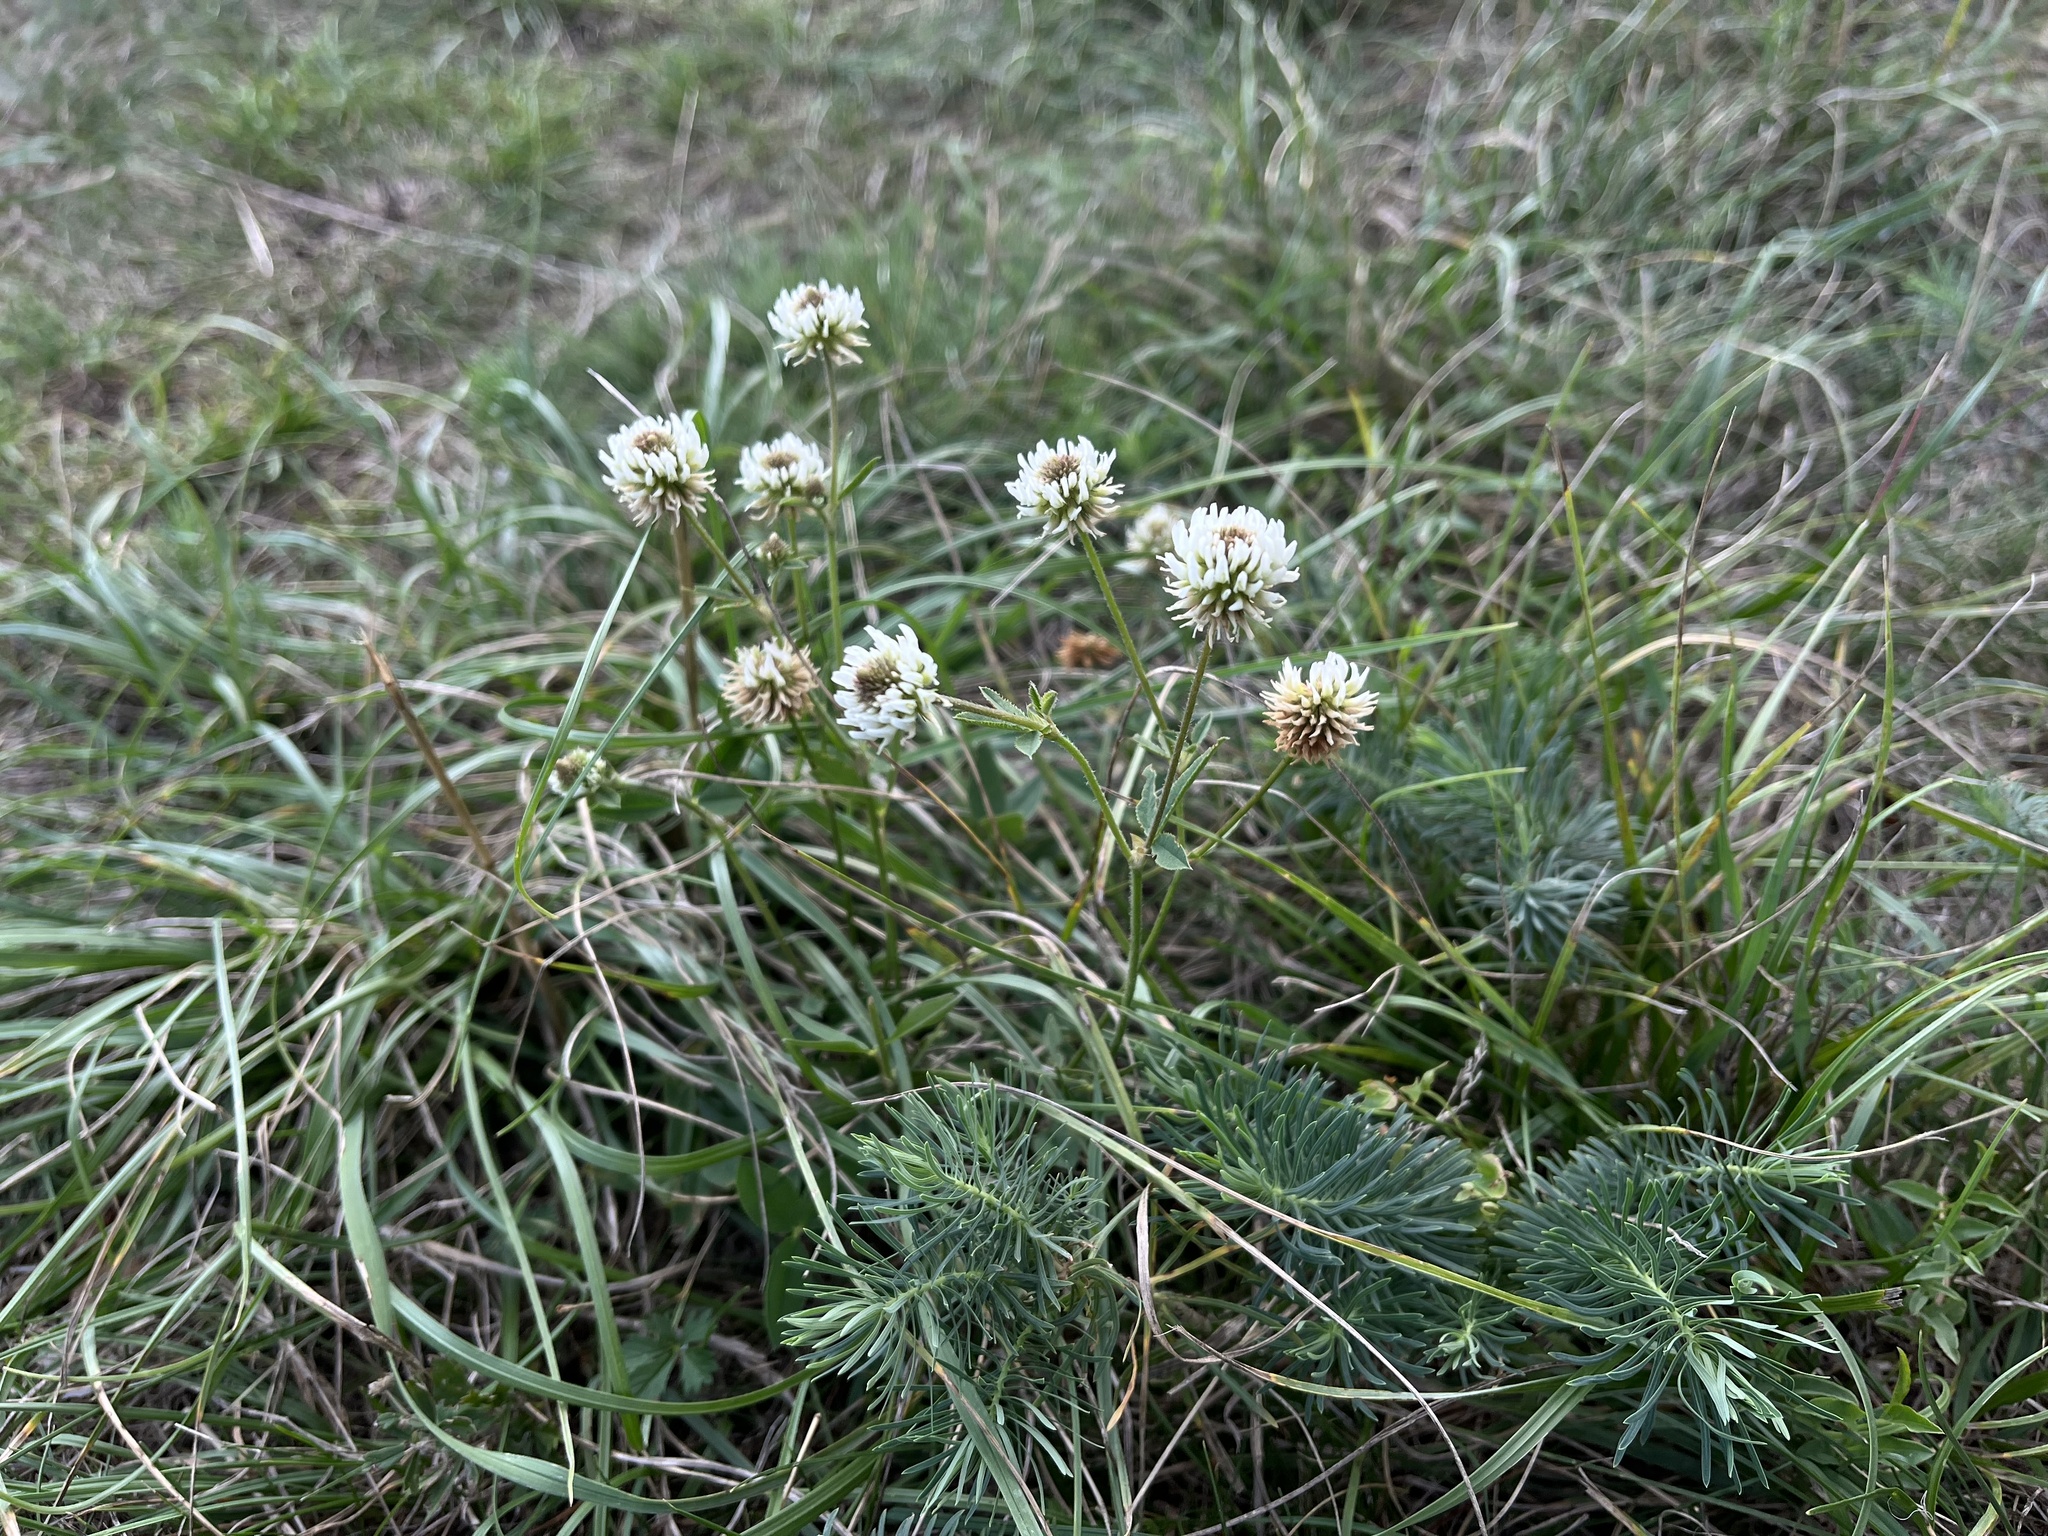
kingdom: Plantae
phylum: Tracheophyta
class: Magnoliopsida
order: Fabales
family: Fabaceae
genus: Trifolium
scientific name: Trifolium montanum
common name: Mountain clover
